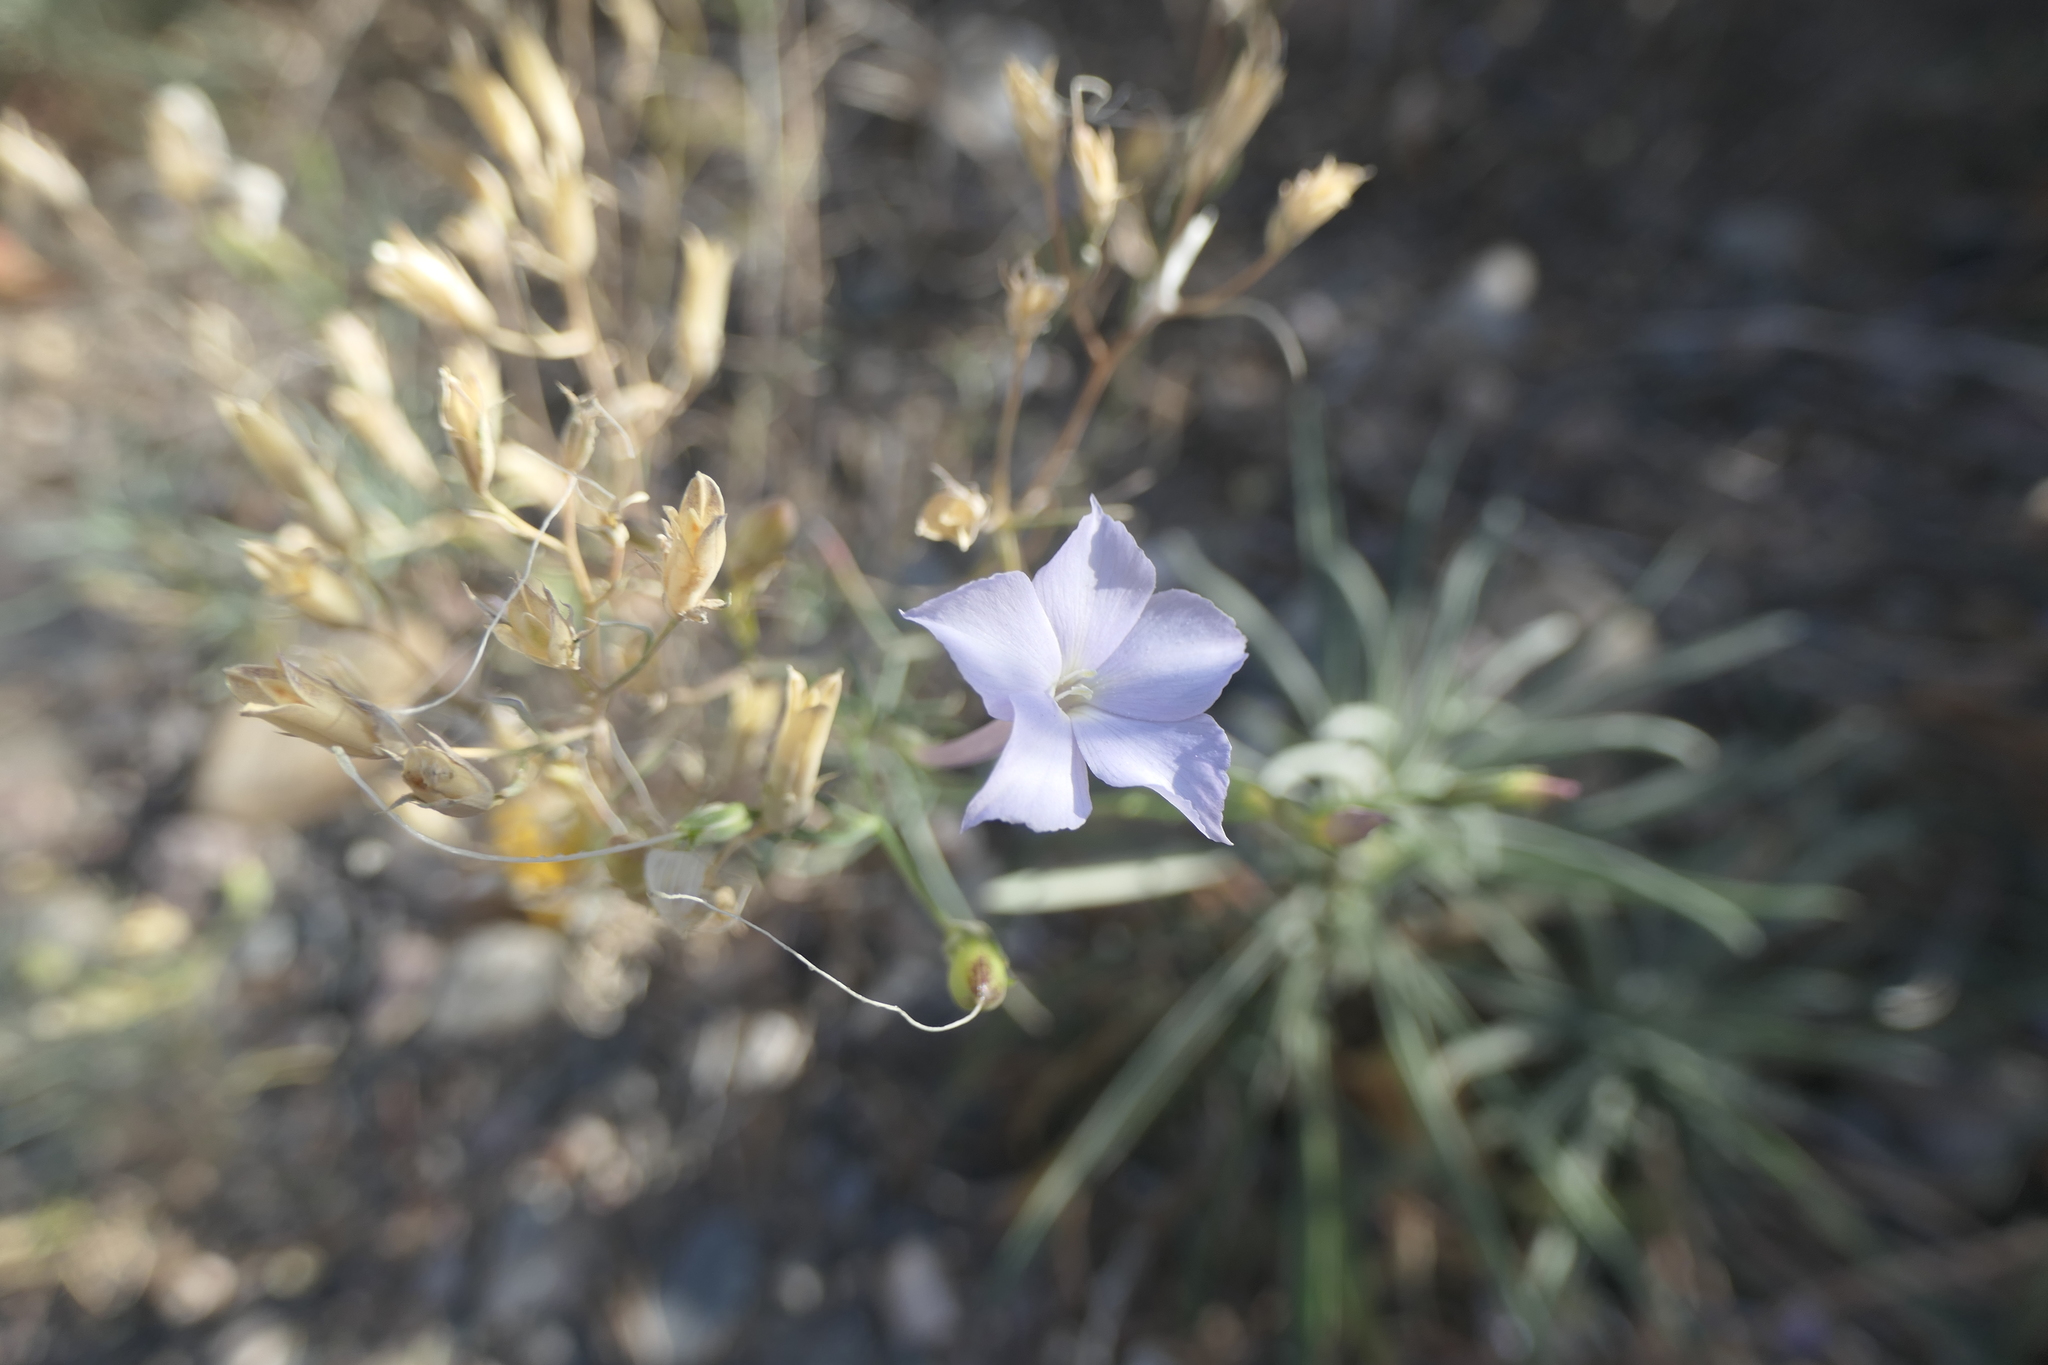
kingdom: Plantae
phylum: Tracheophyta
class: Magnoliopsida
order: Ericales
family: Polemoniaceae
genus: Ipomopsis
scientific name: Ipomopsis longiflora
